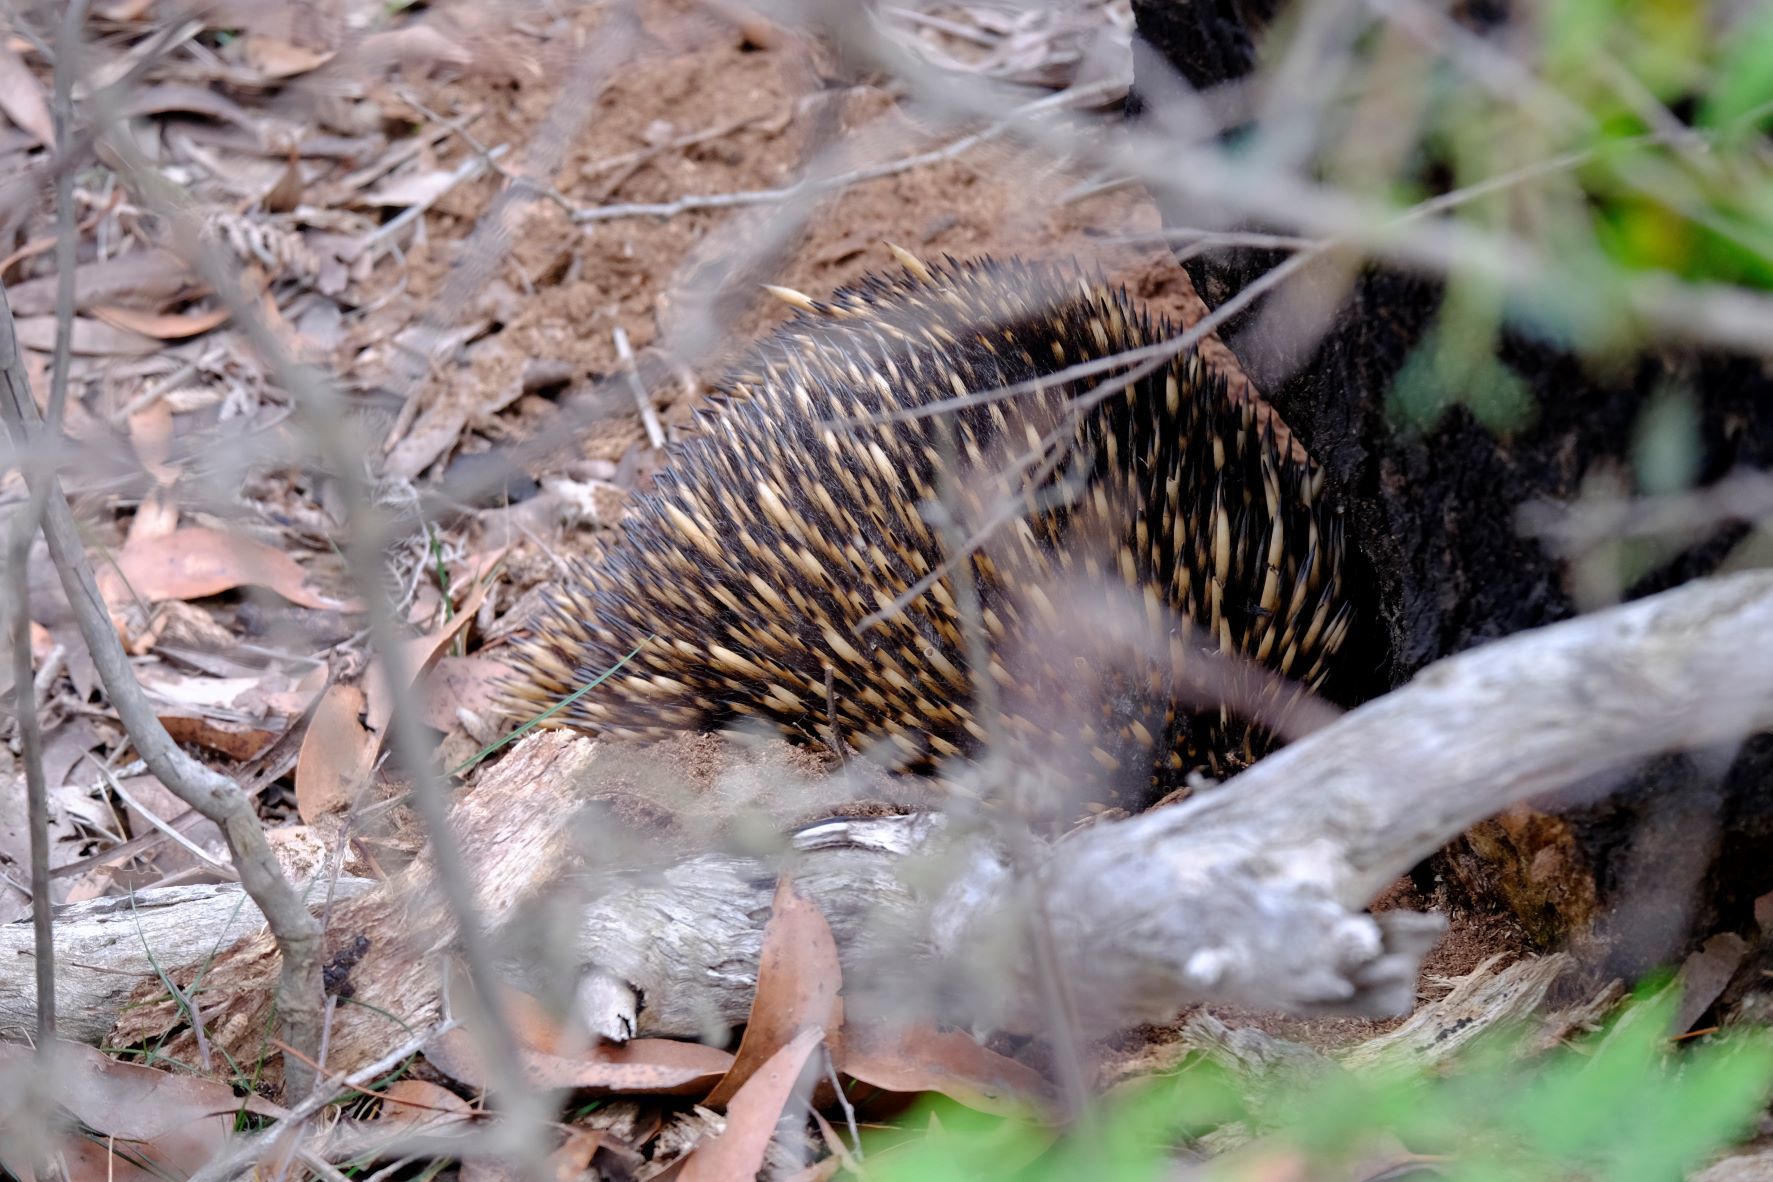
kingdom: Animalia
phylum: Chordata
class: Mammalia
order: Monotremata
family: Tachyglossidae
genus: Tachyglossus
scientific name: Tachyglossus aculeatus
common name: Short-beaked echidna
